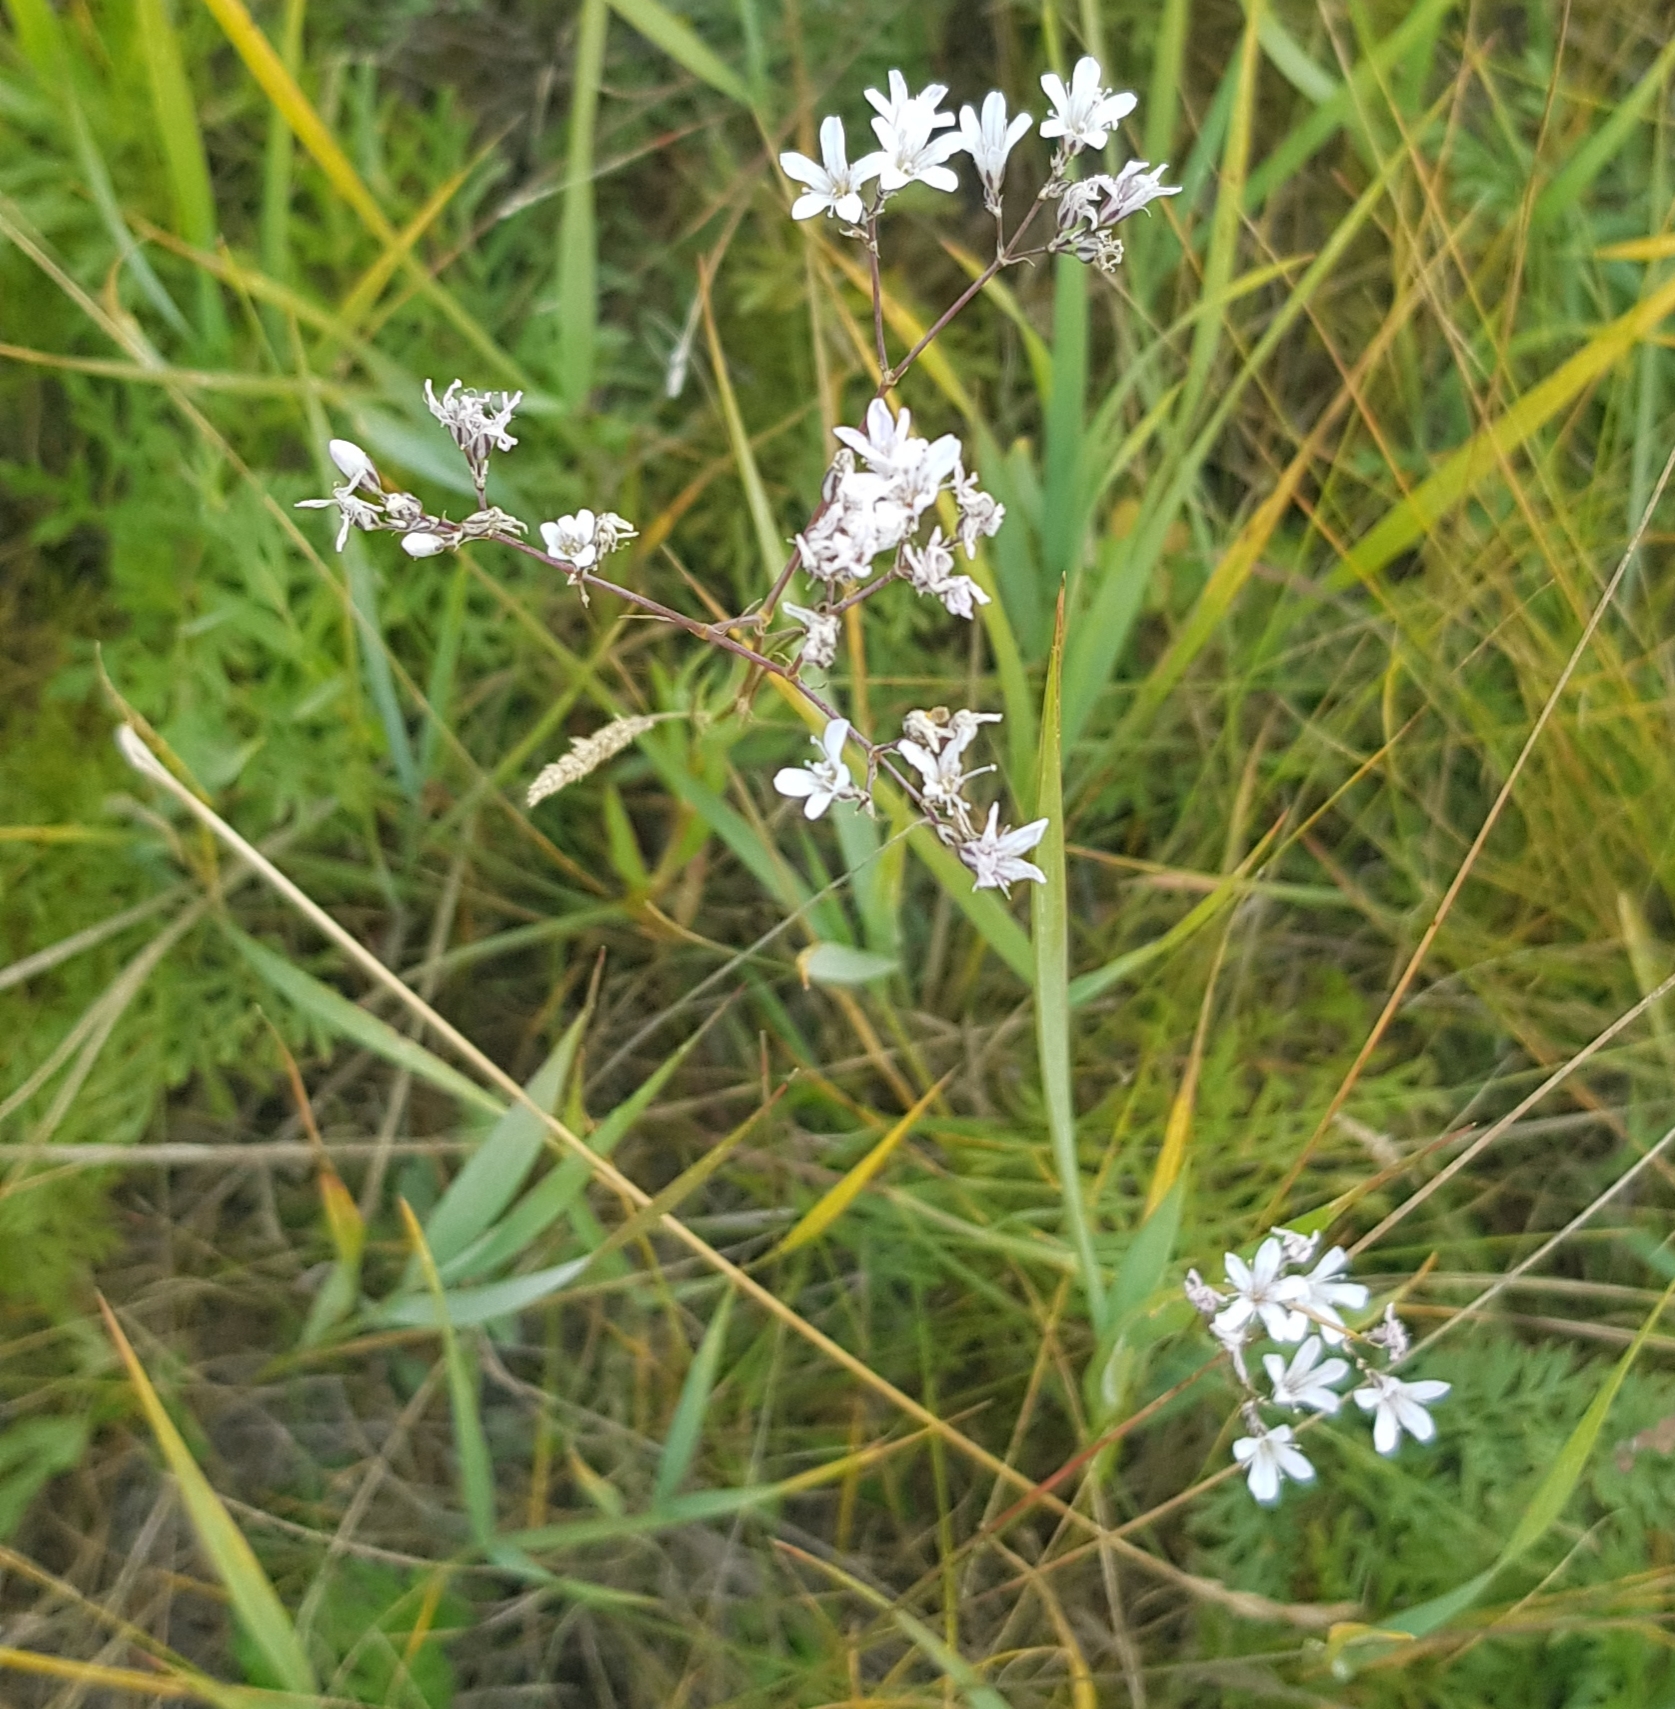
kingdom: Plantae
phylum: Tracheophyta
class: Magnoliopsida
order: Caryophyllales
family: Caryophyllaceae
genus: Gypsophila
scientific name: Gypsophila paniculata
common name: Baby's-breath
